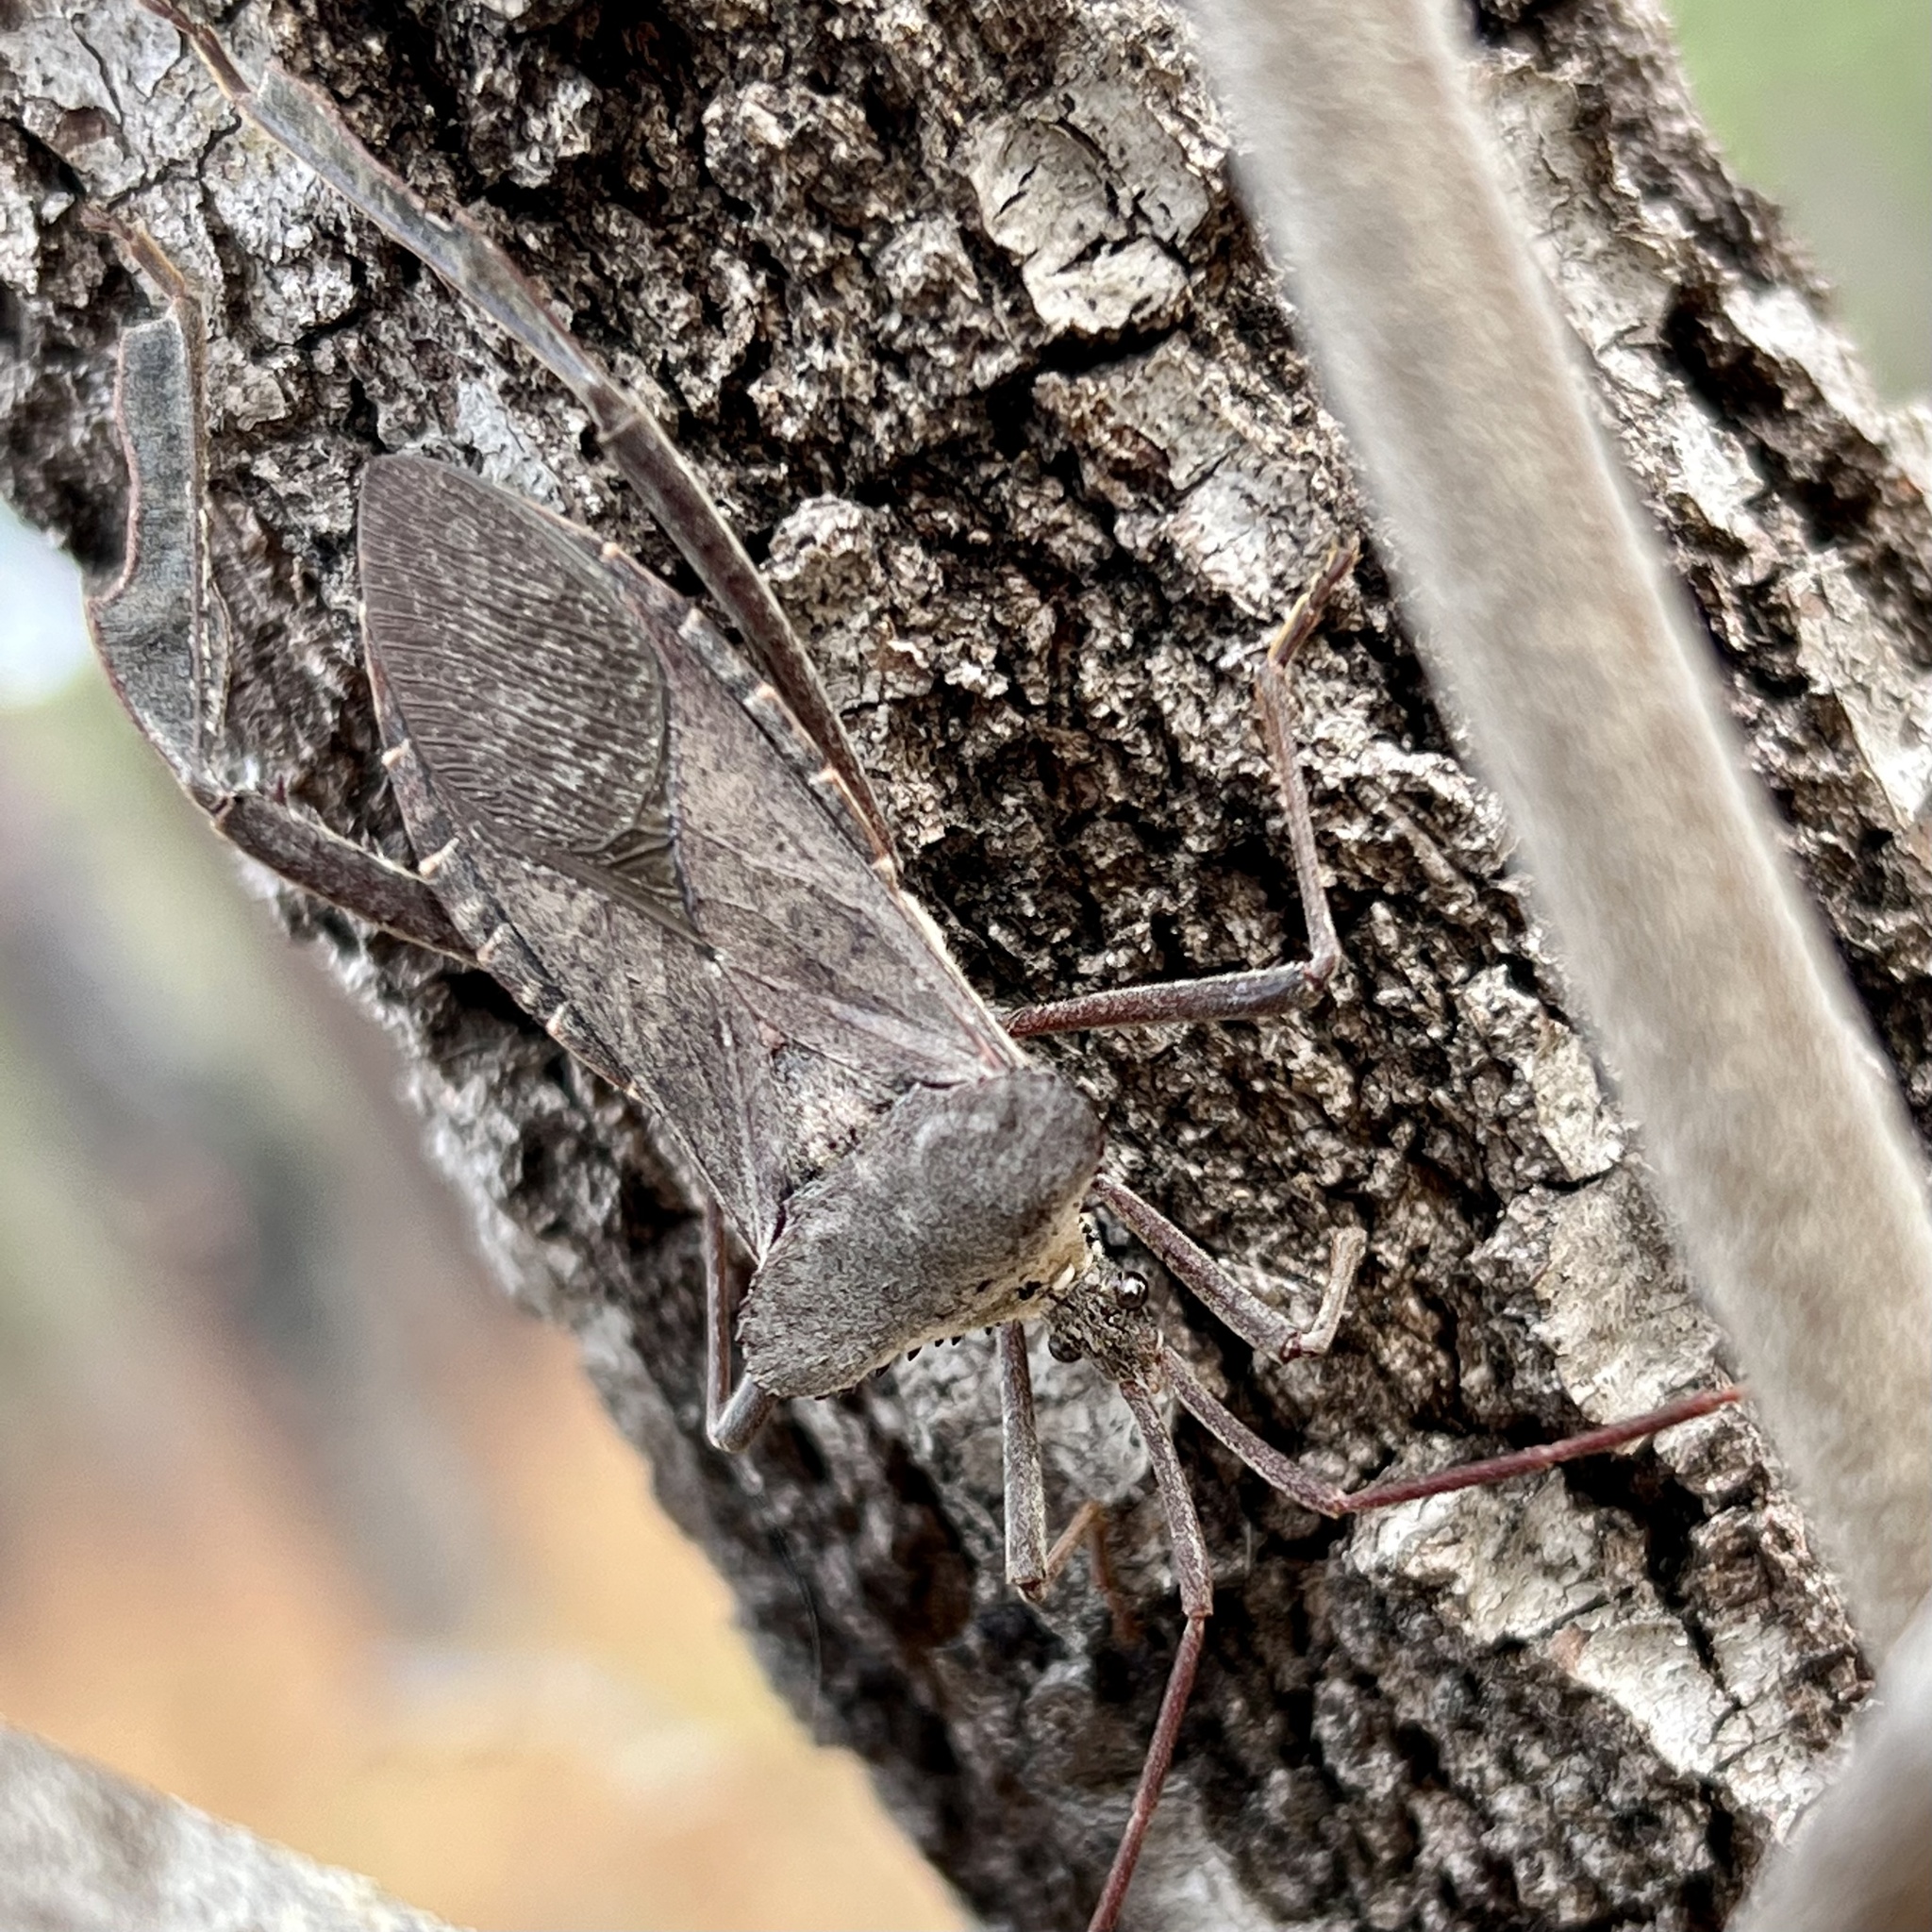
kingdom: Animalia
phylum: Arthropoda
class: Insecta
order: Hemiptera
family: Coreidae
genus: Acanthocephala
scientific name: Acanthocephala declivis
